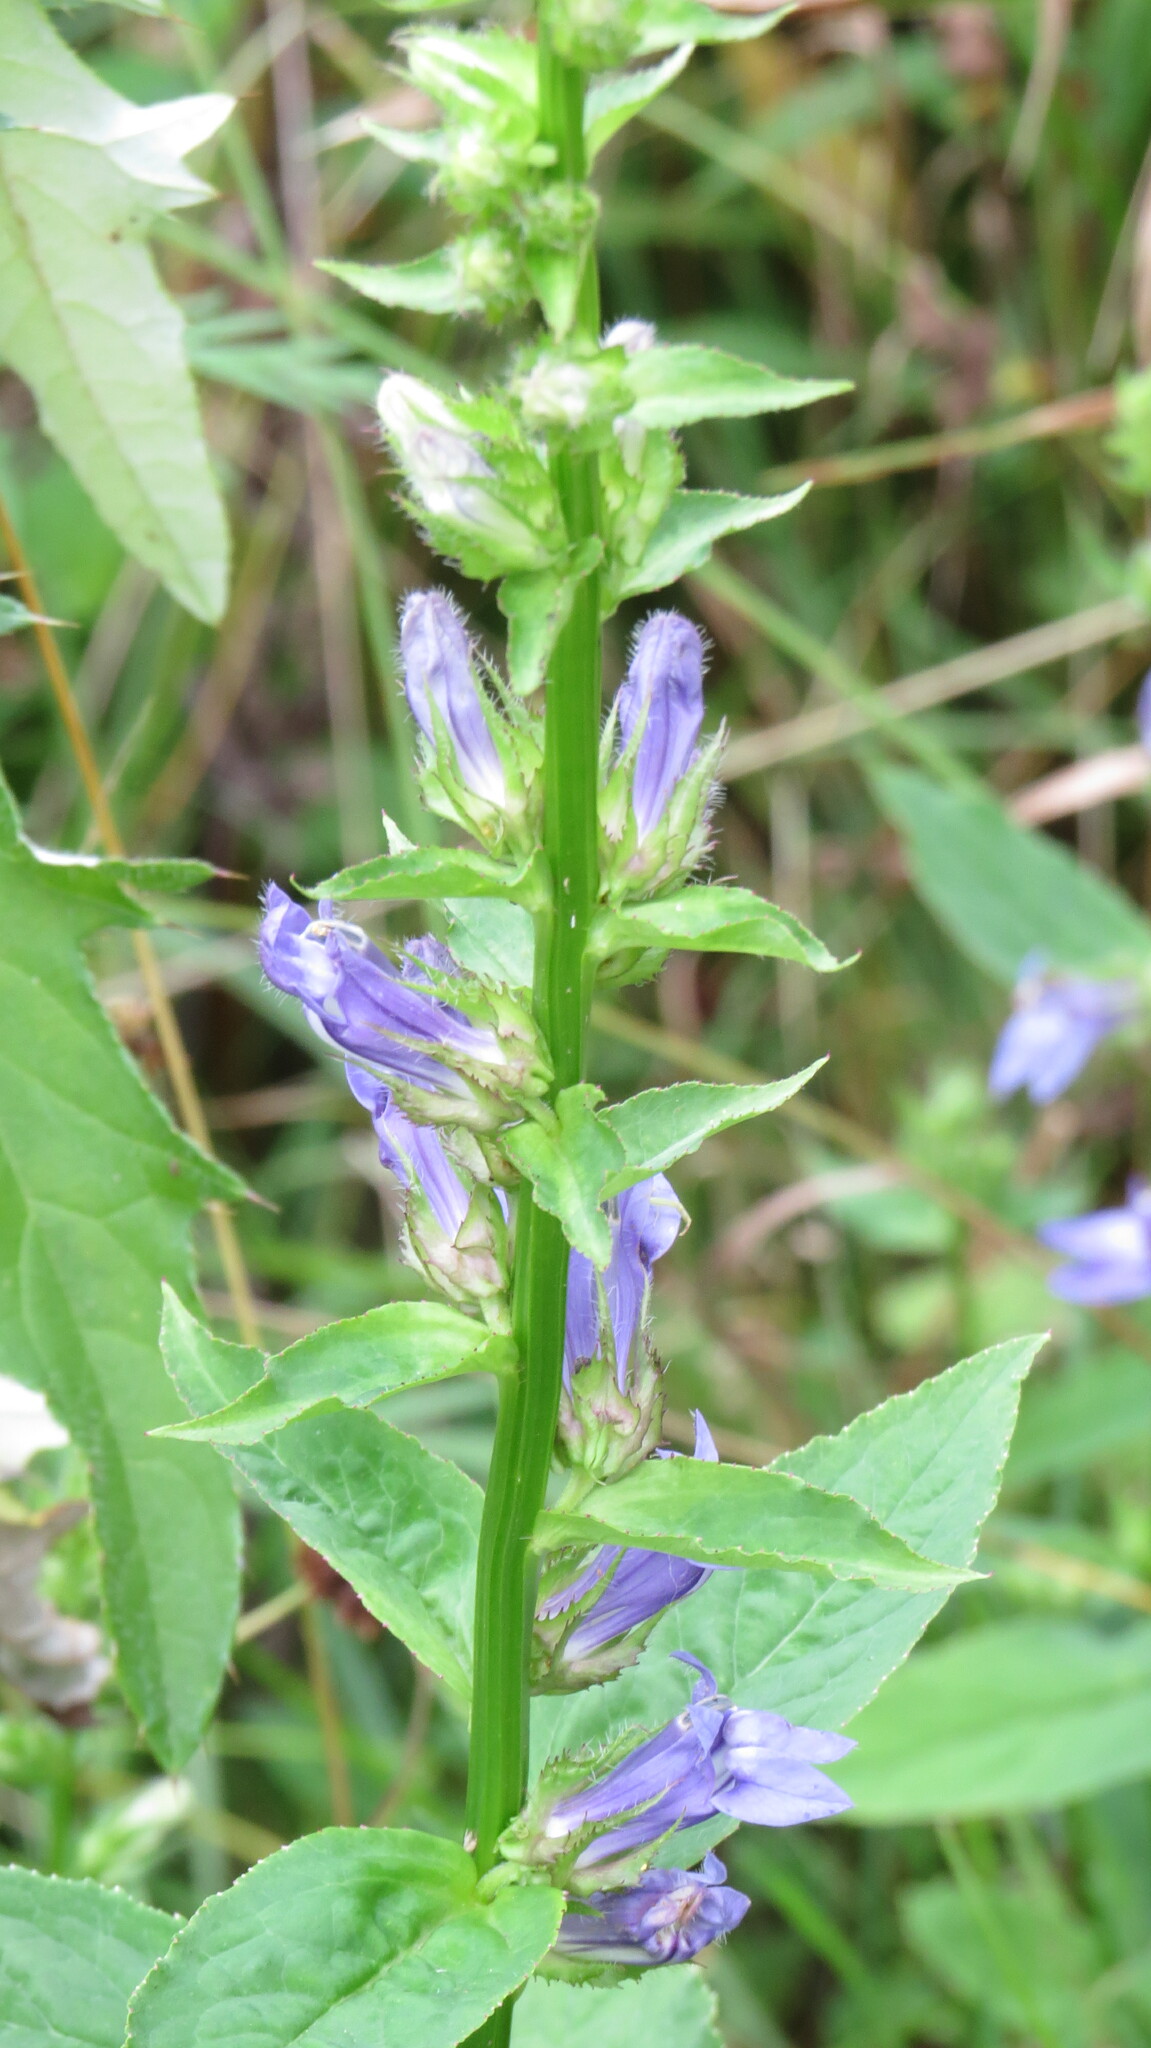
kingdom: Plantae
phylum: Tracheophyta
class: Magnoliopsida
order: Asterales
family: Campanulaceae
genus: Lobelia
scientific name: Lobelia siphilitica
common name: Great lobelia
